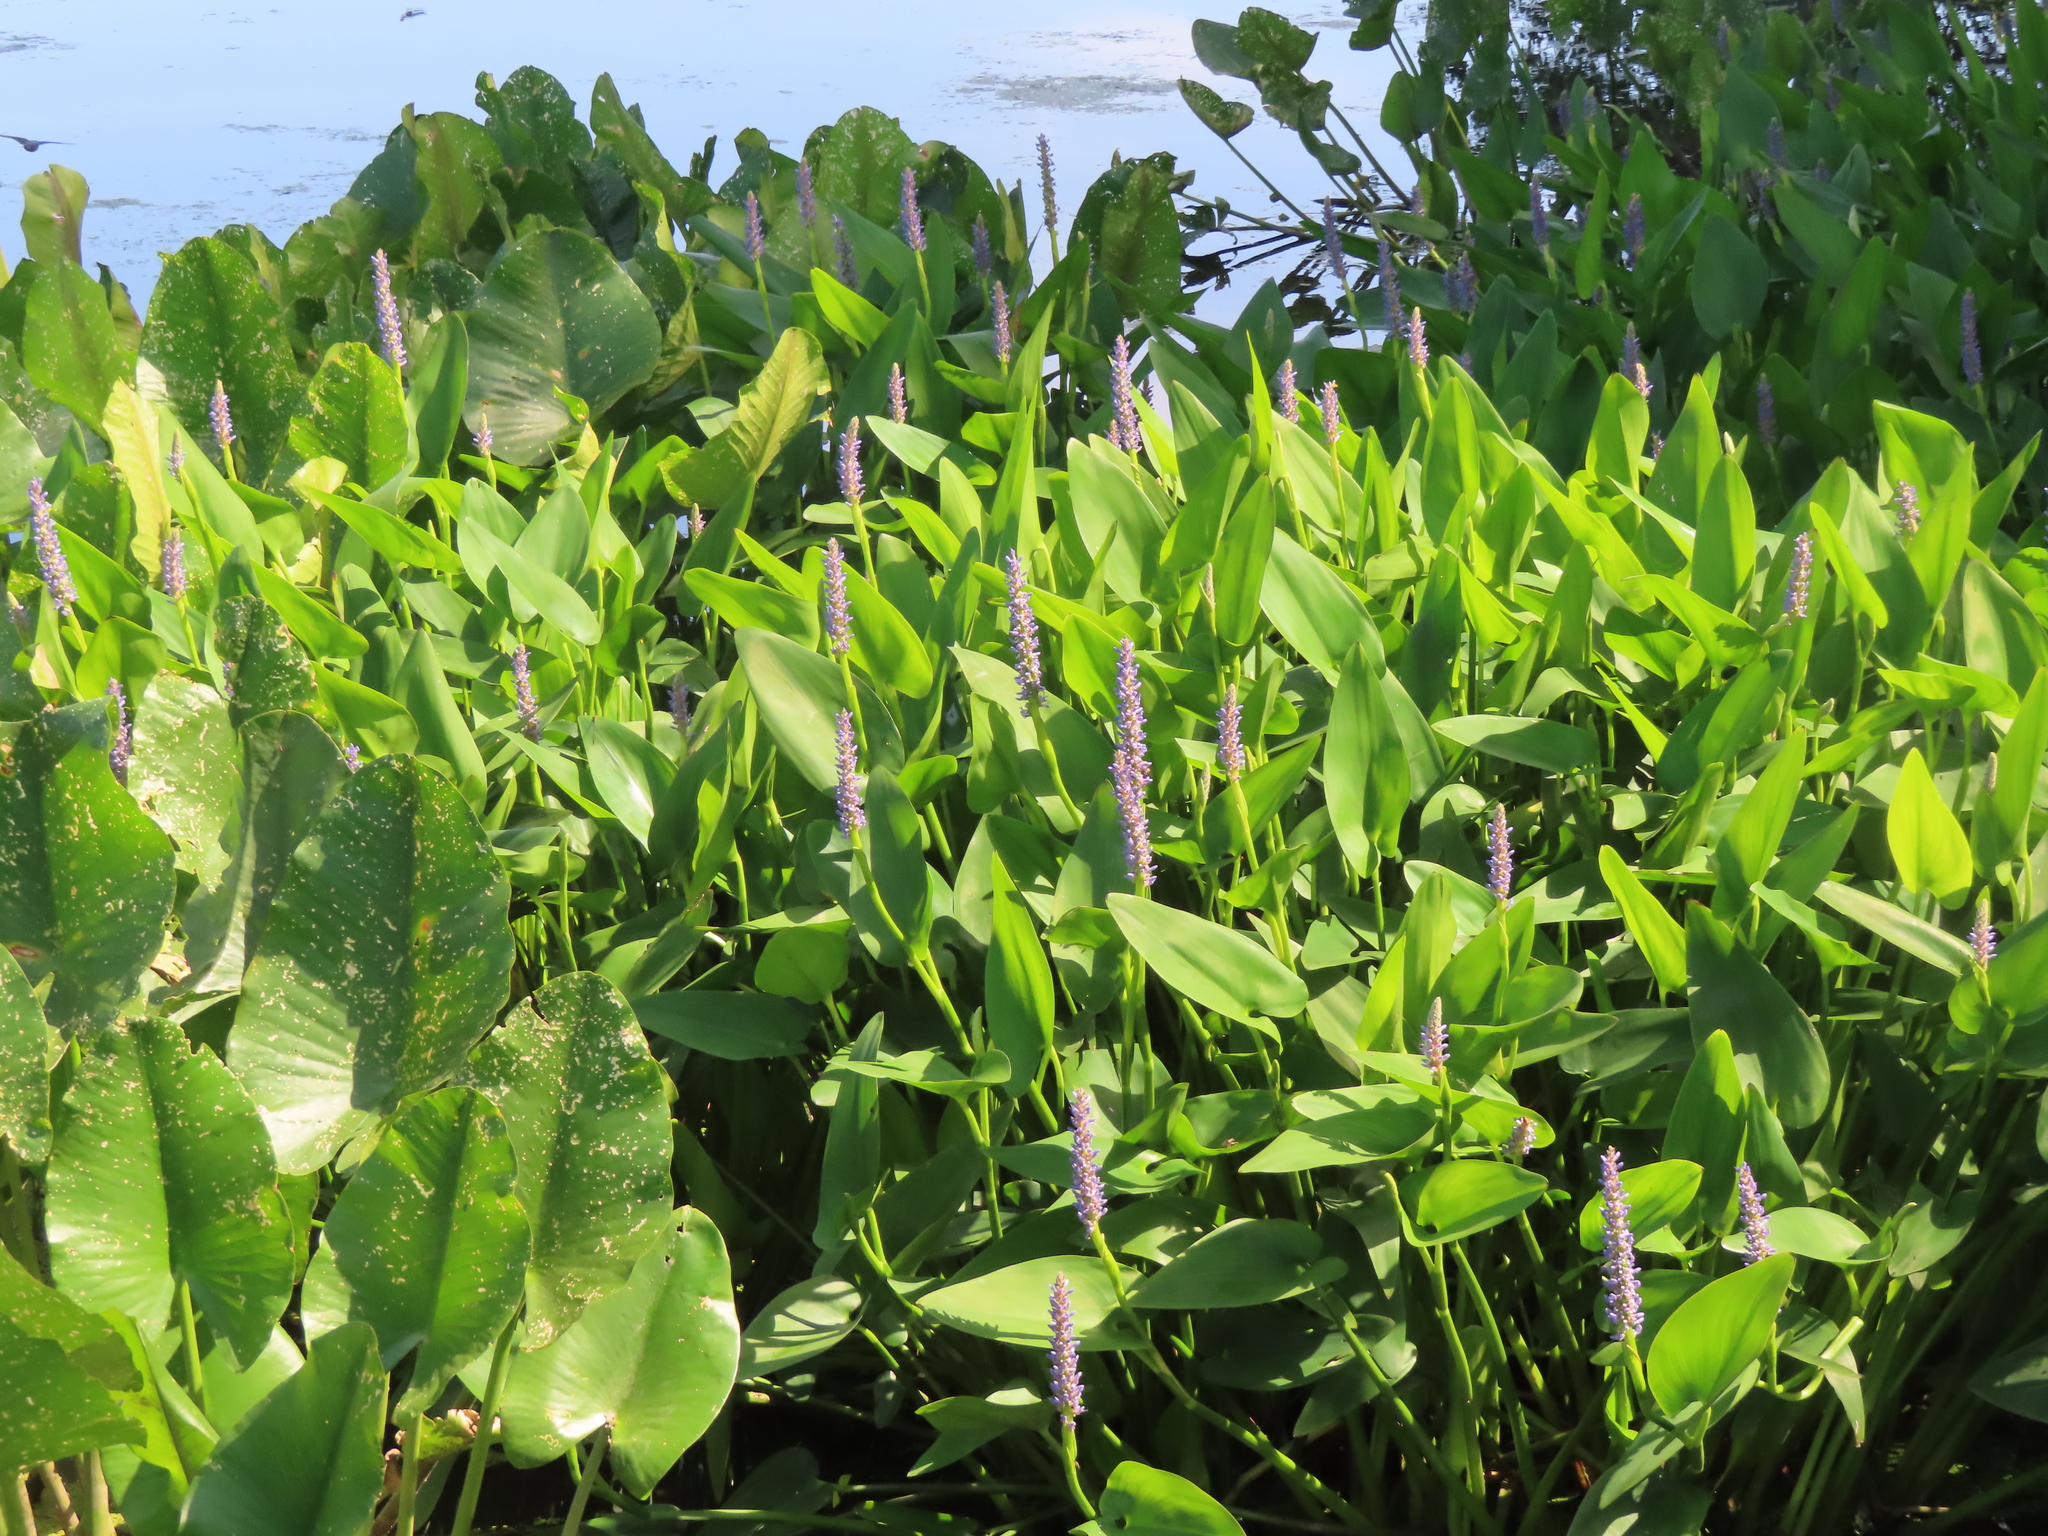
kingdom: Plantae
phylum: Tracheophyta
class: Liliopsida
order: Commelinales
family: Pontederiaceae
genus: Pontederia
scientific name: Pontederia cordata
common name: Pickerelweed
